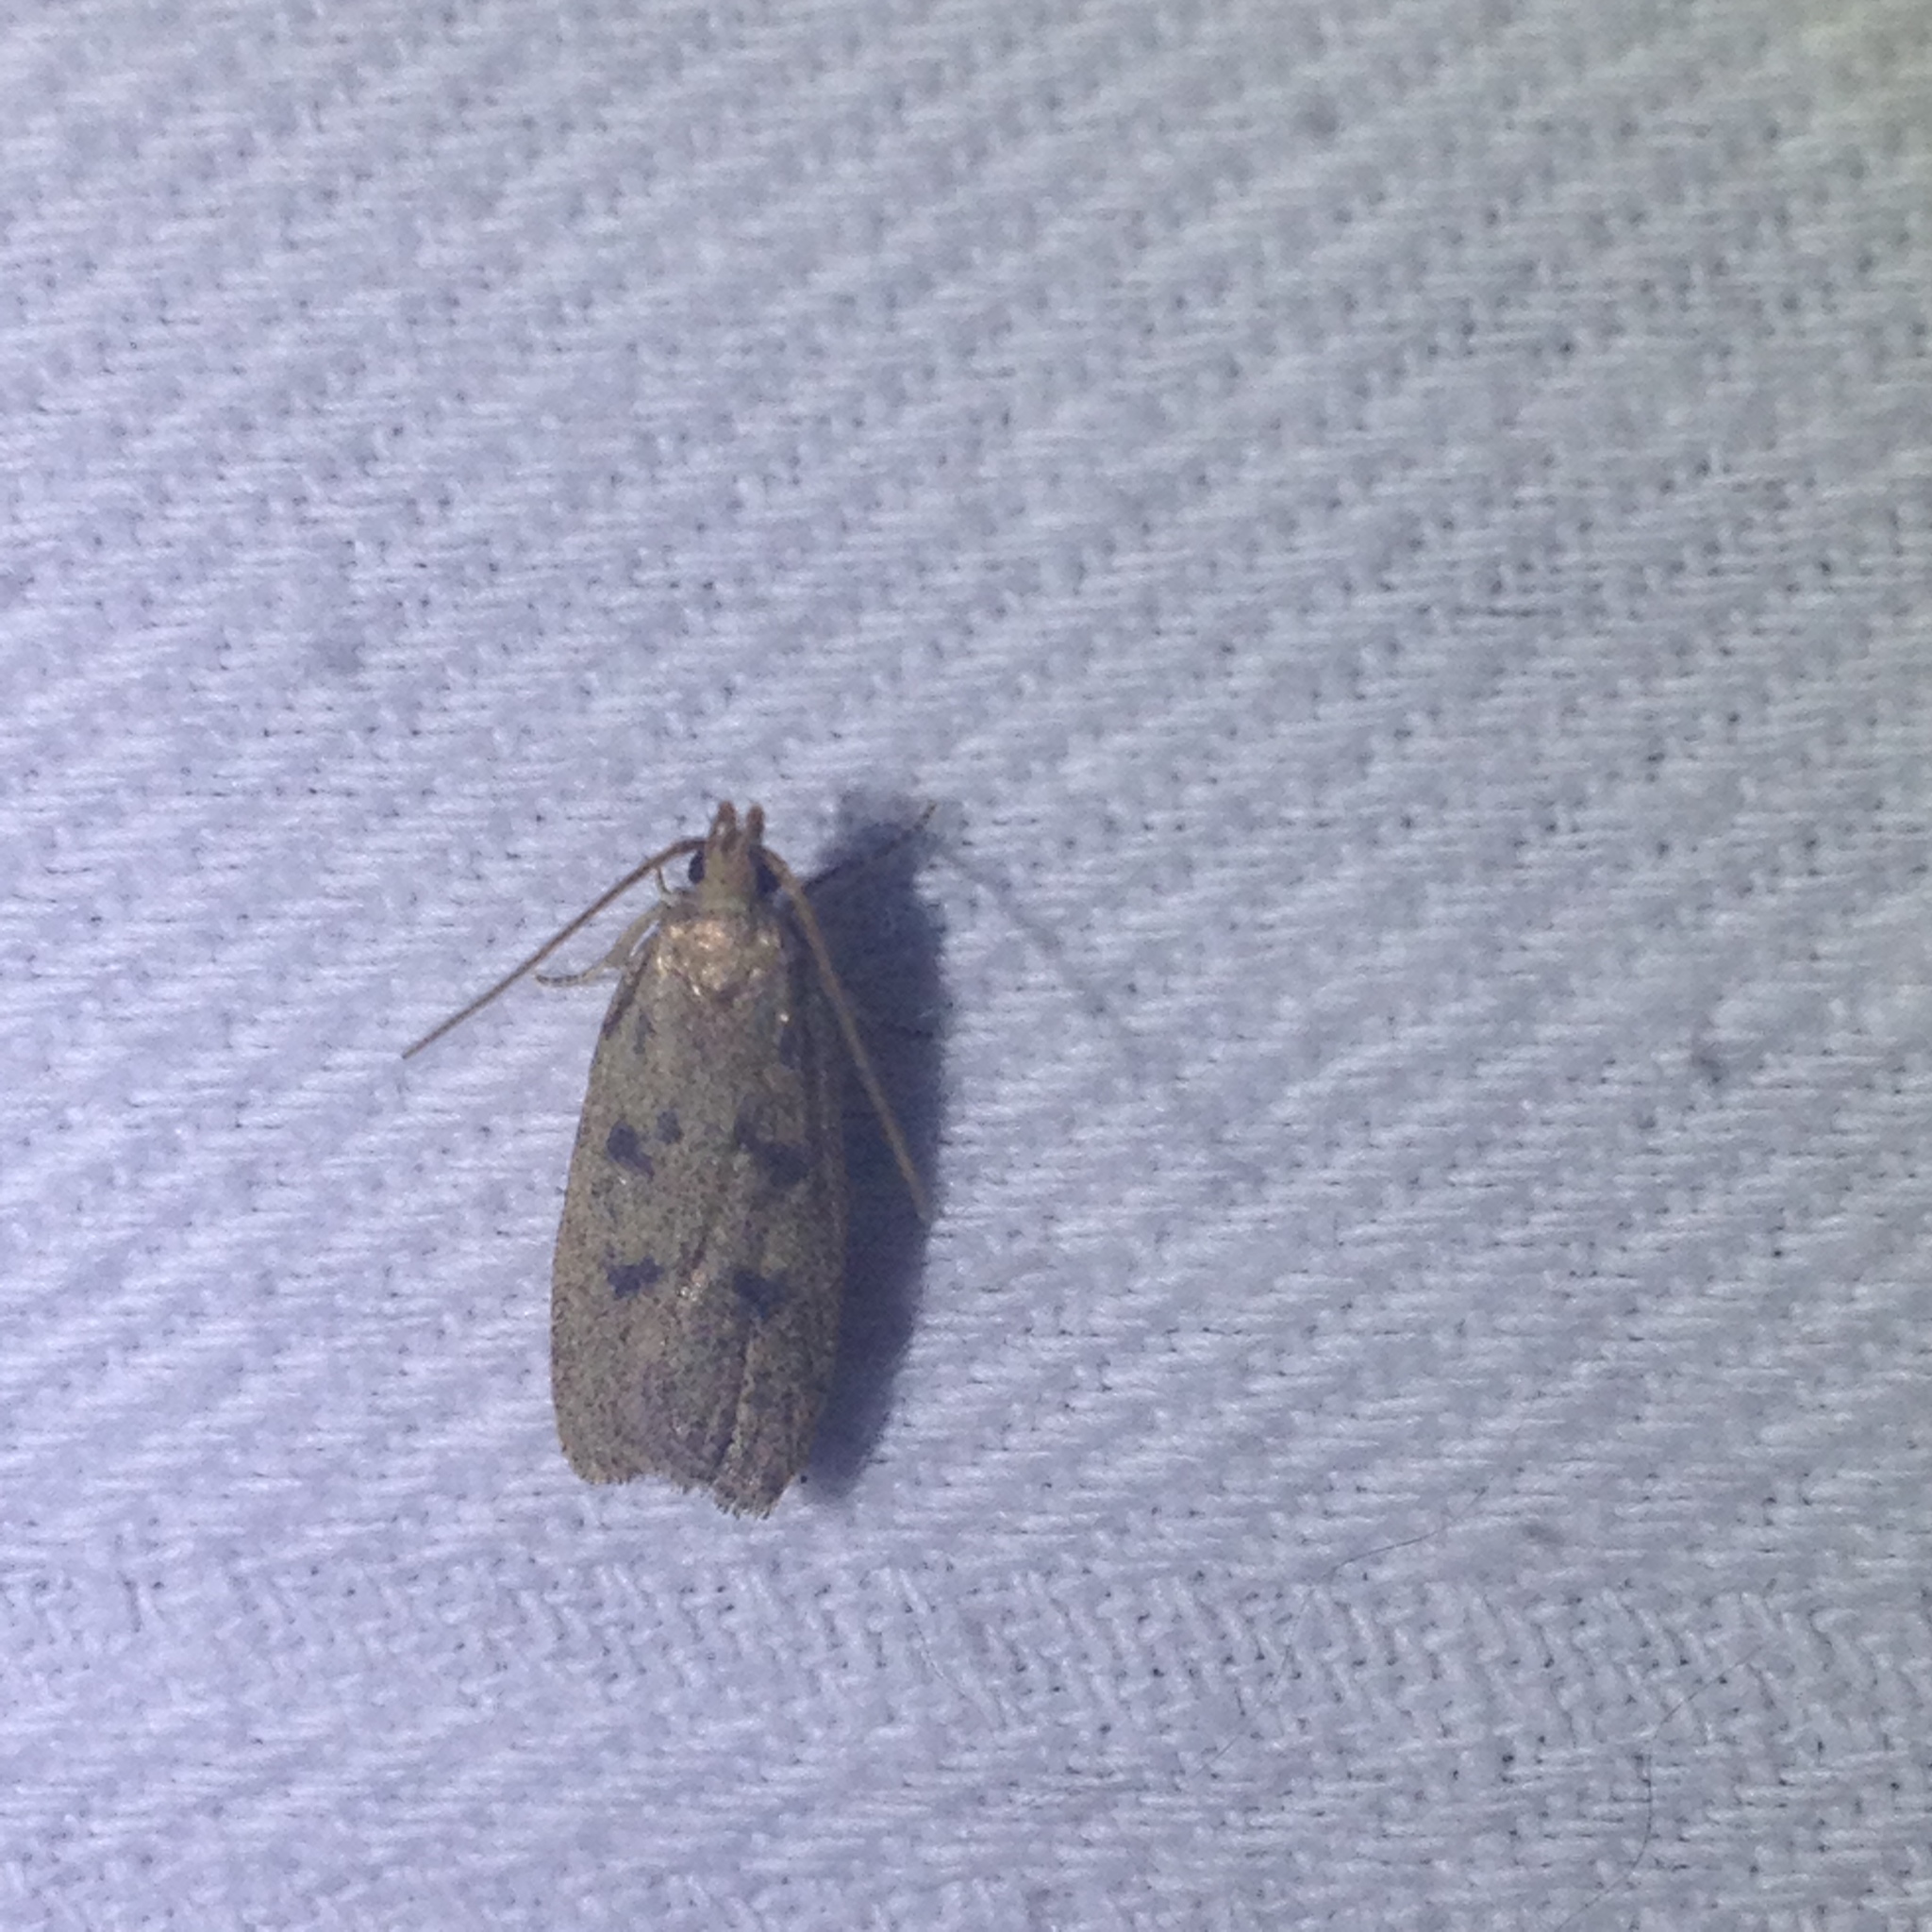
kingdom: Animalia
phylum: Arthropoda
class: Insecta
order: Lepidoptera
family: Autostichidae
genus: Glyphidocera
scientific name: Glyphidocera septentrionella
